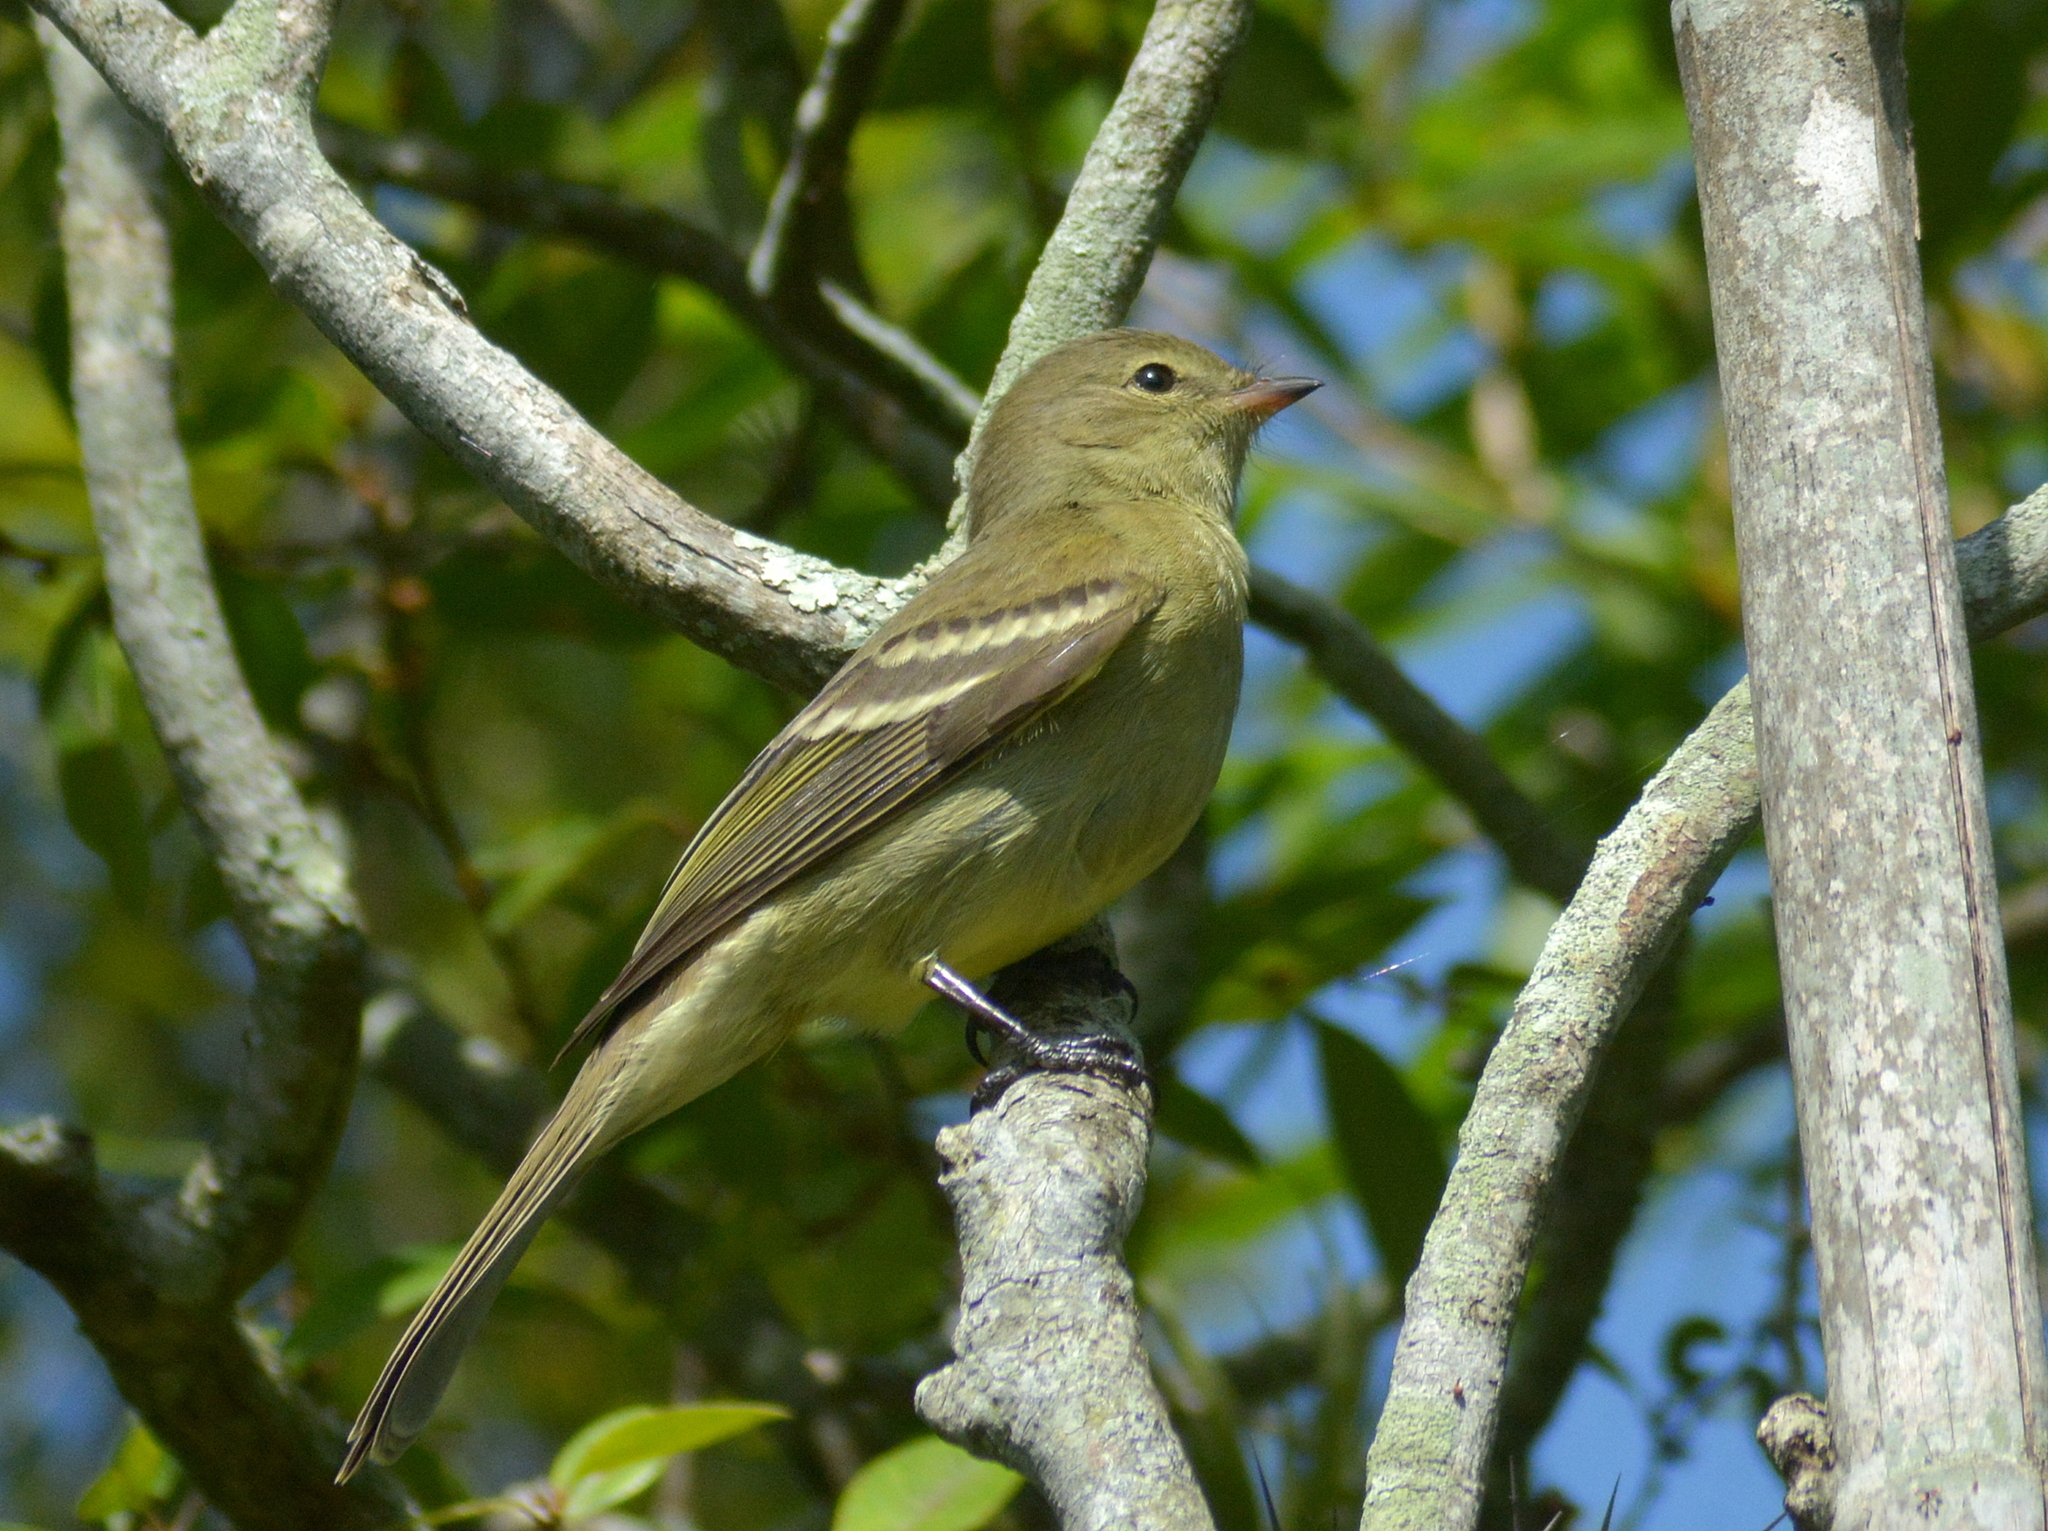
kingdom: Animalia
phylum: Chordata
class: Aves
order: Passeriformes
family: Tyrannidae
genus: Elaenia
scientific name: Elaenia sordida
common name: Small-headed elaenia
